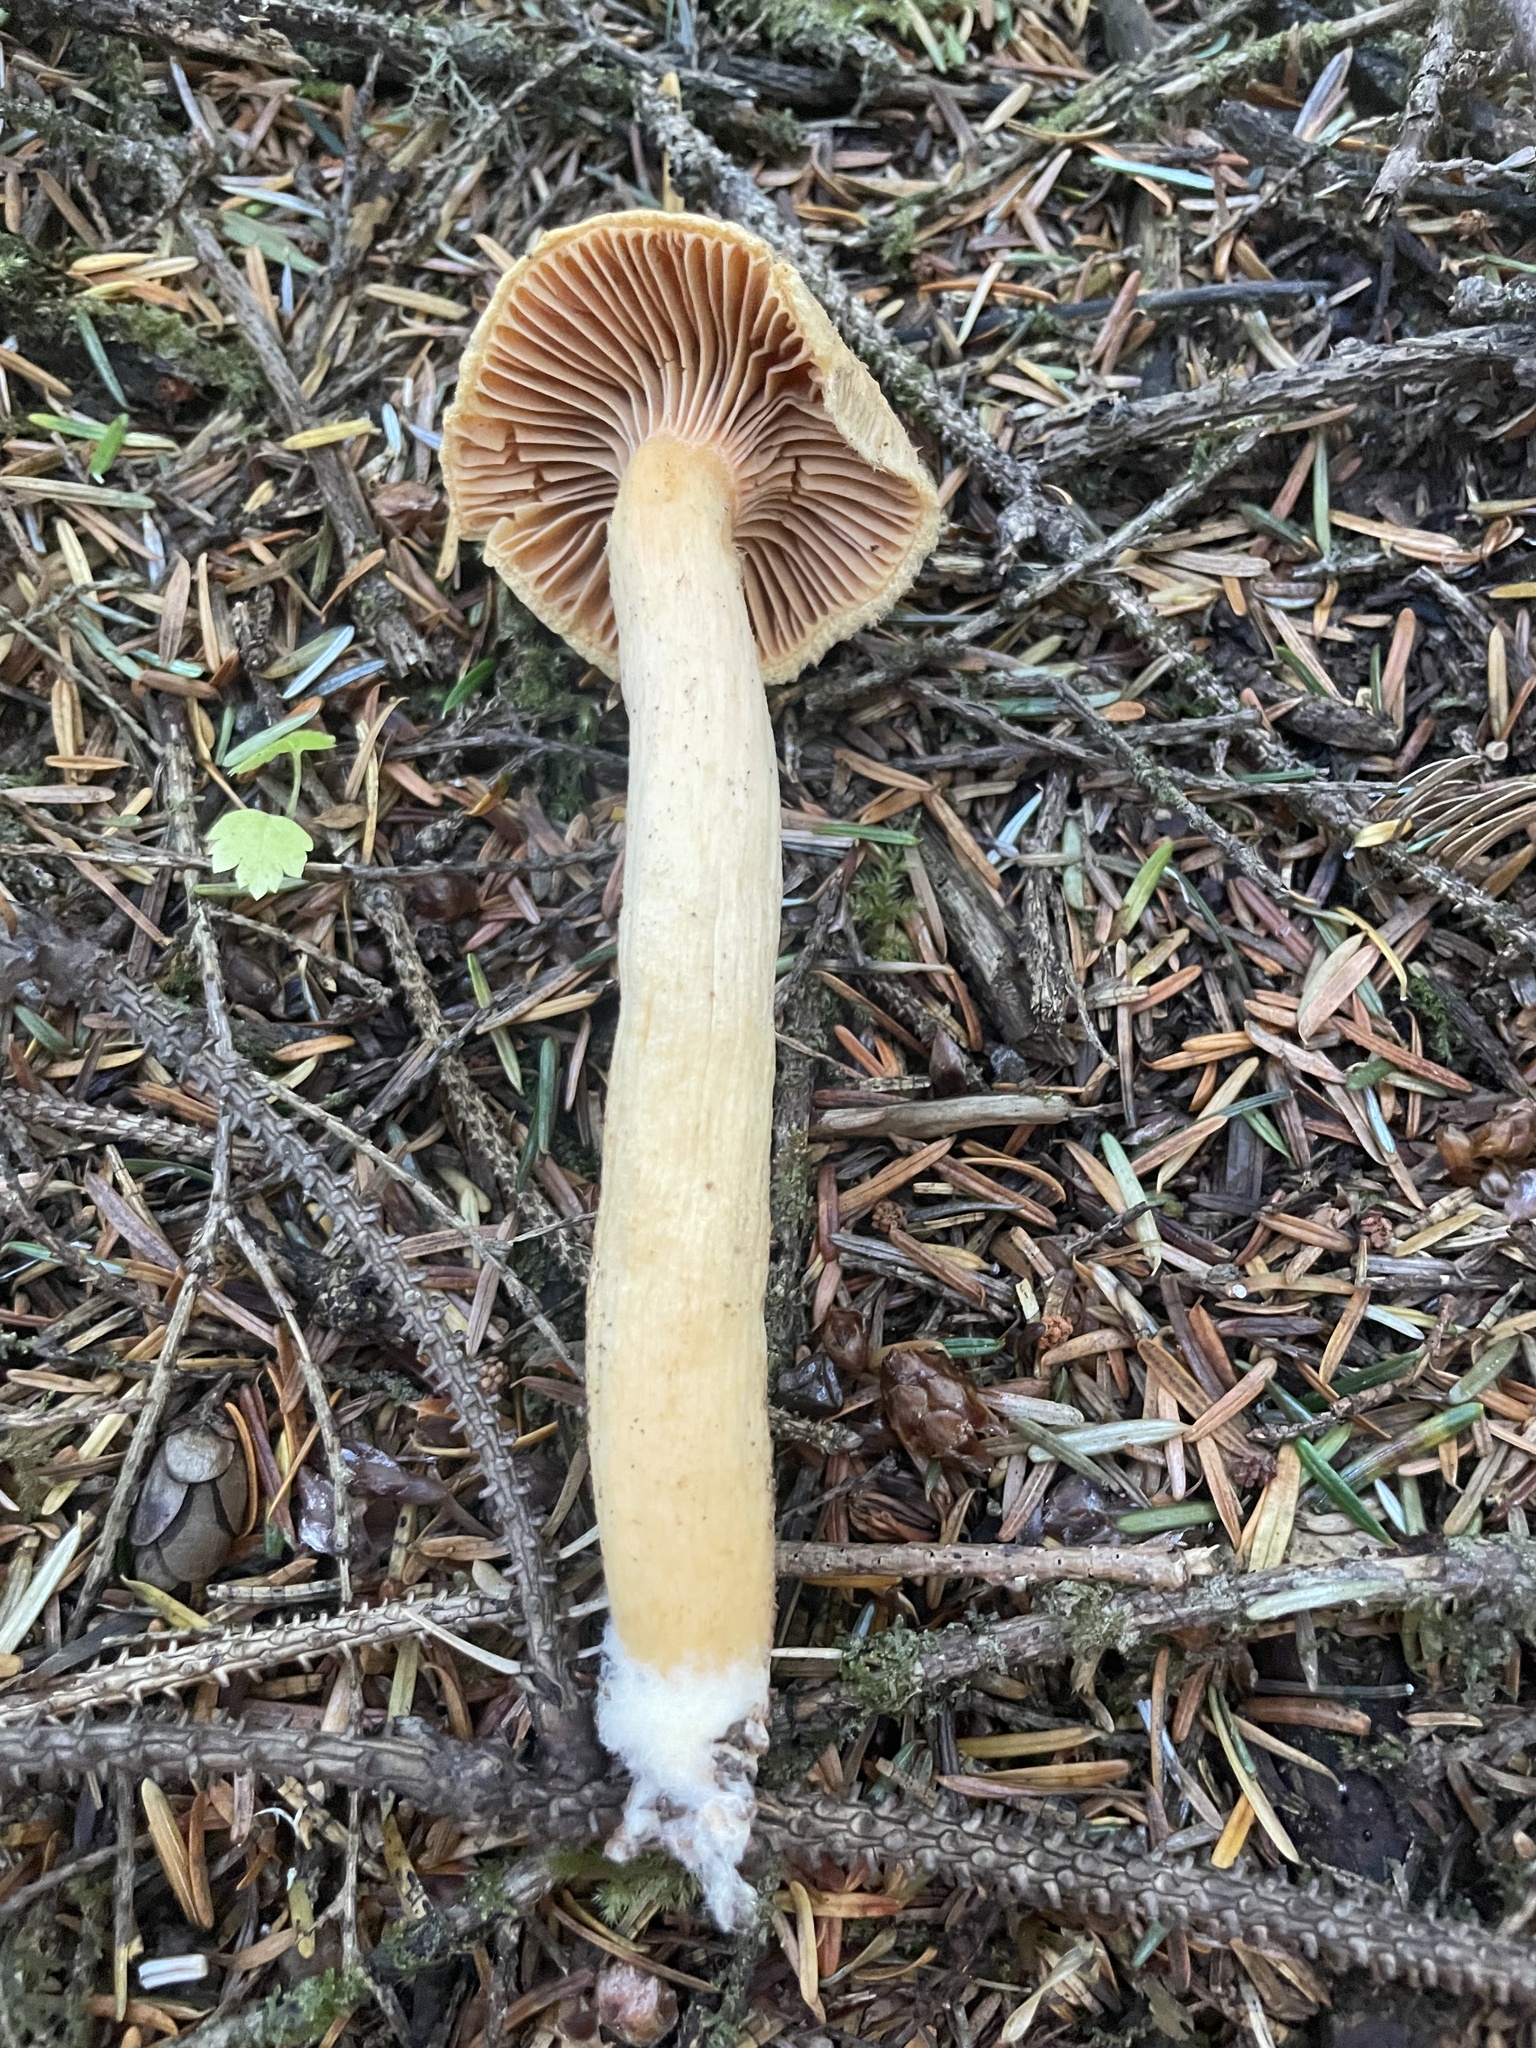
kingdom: Fungi
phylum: Basidiomycota
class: Agaricomycetes
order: Boletales
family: Gomphidiaceae
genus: Chroogomphus
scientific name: Chroogomphus tomentosus
